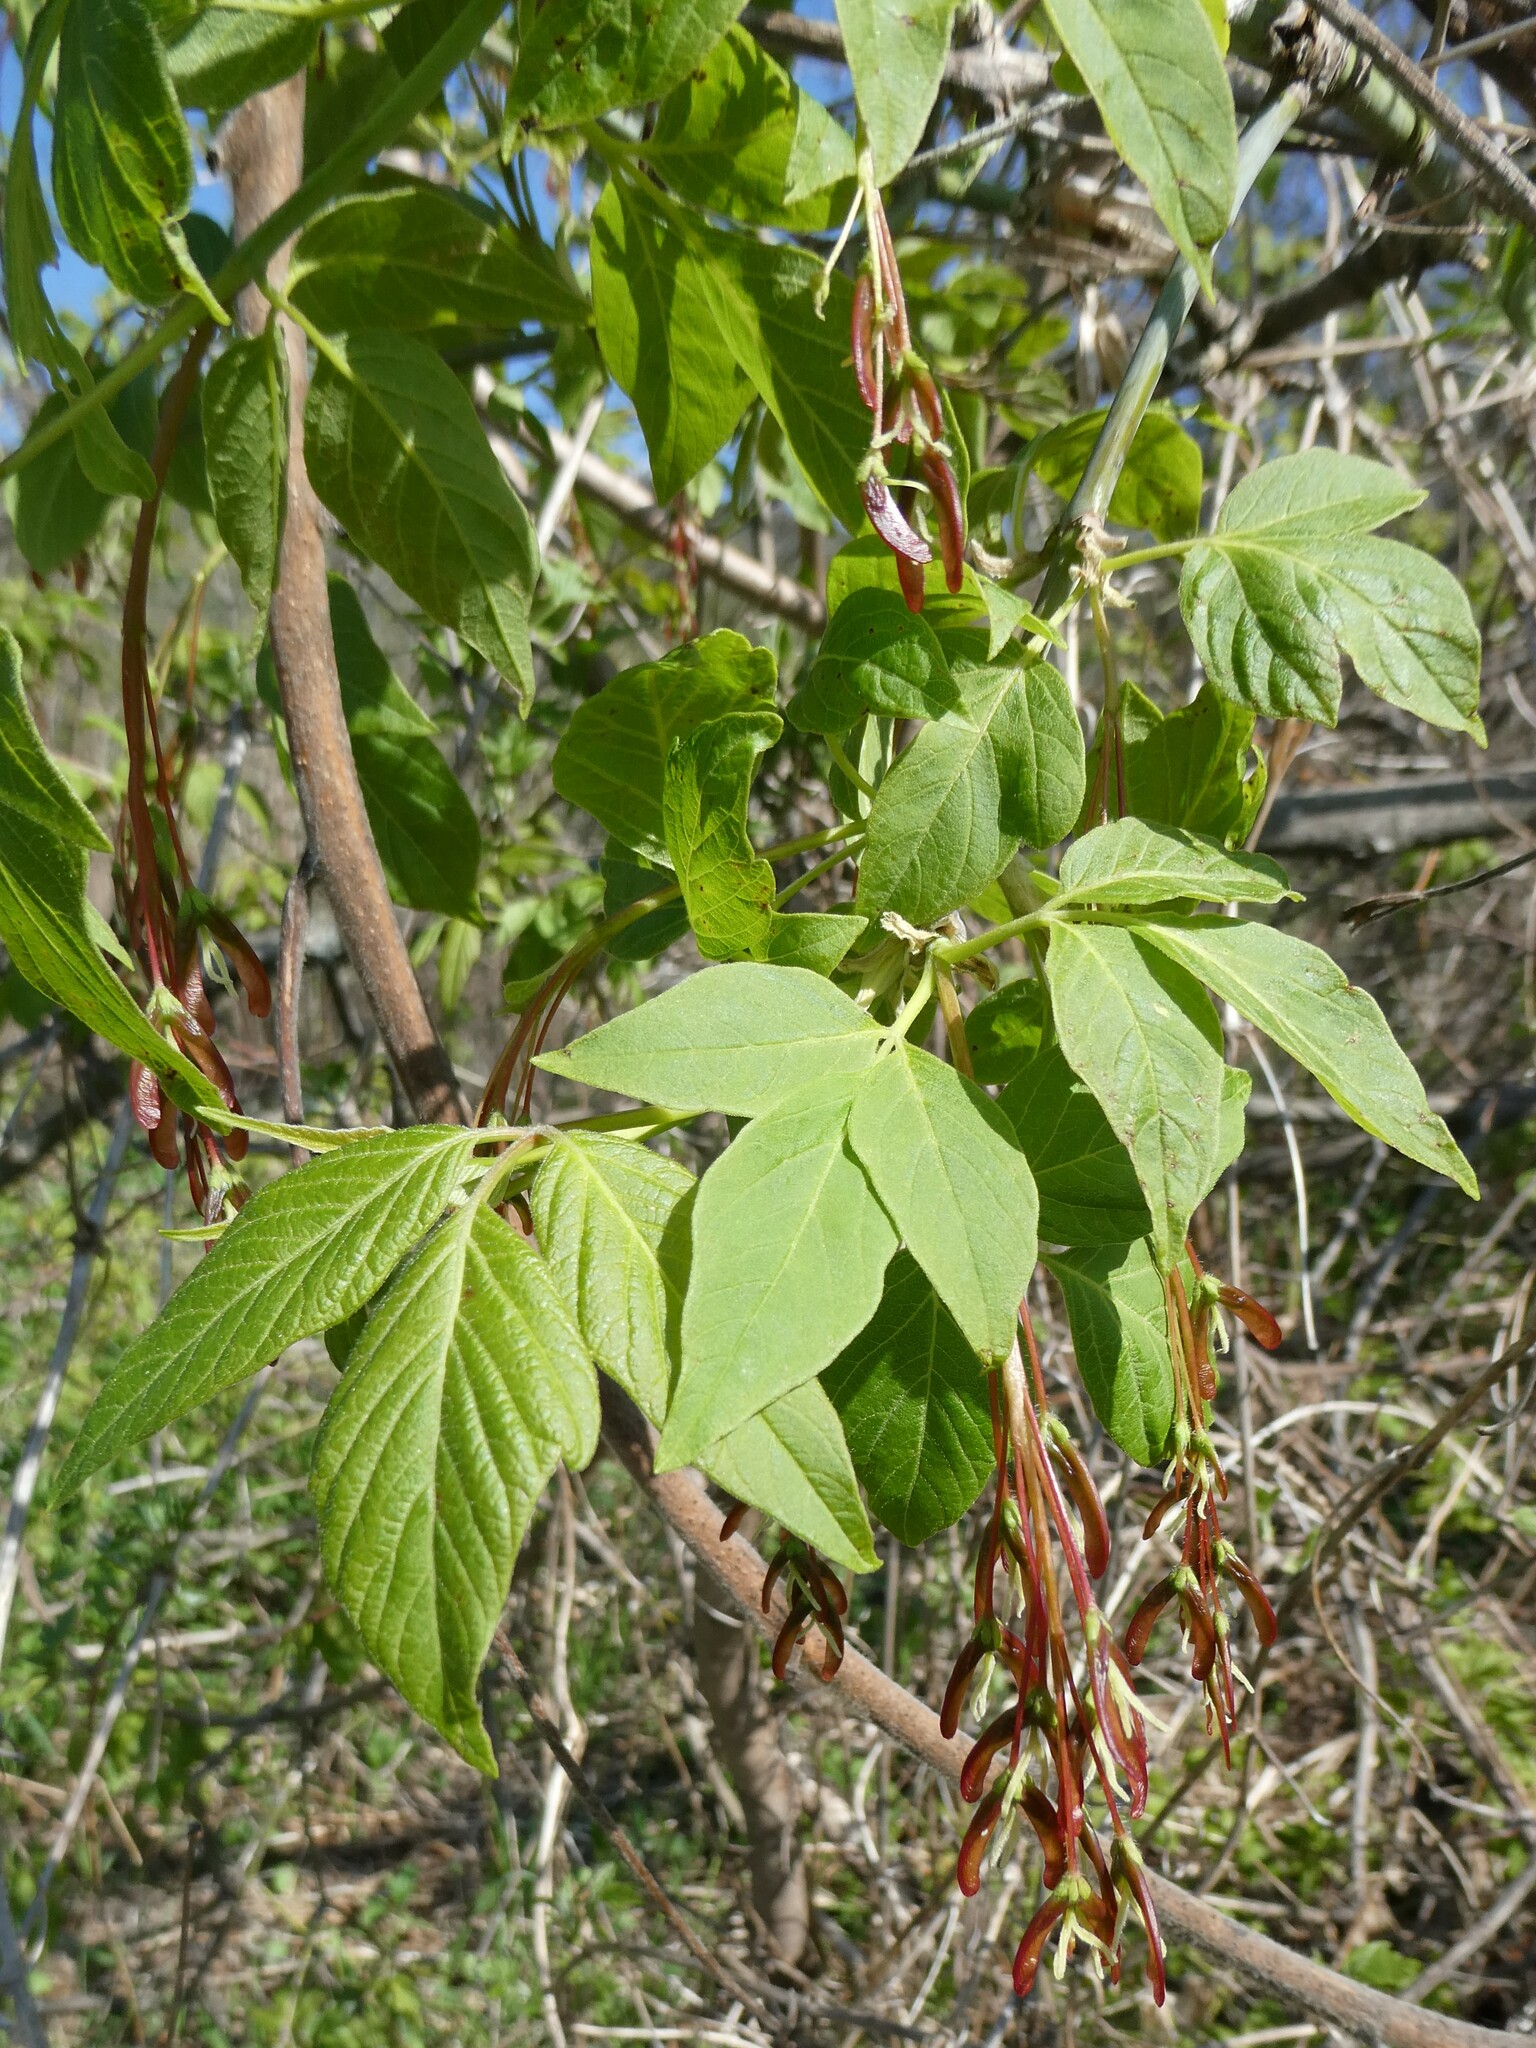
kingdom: Plantae
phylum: Tracheophyta
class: Magnoliopsida
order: Sapindales
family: Sapindaceae
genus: Acer
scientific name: Acer negundo
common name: Ashleaf maple
